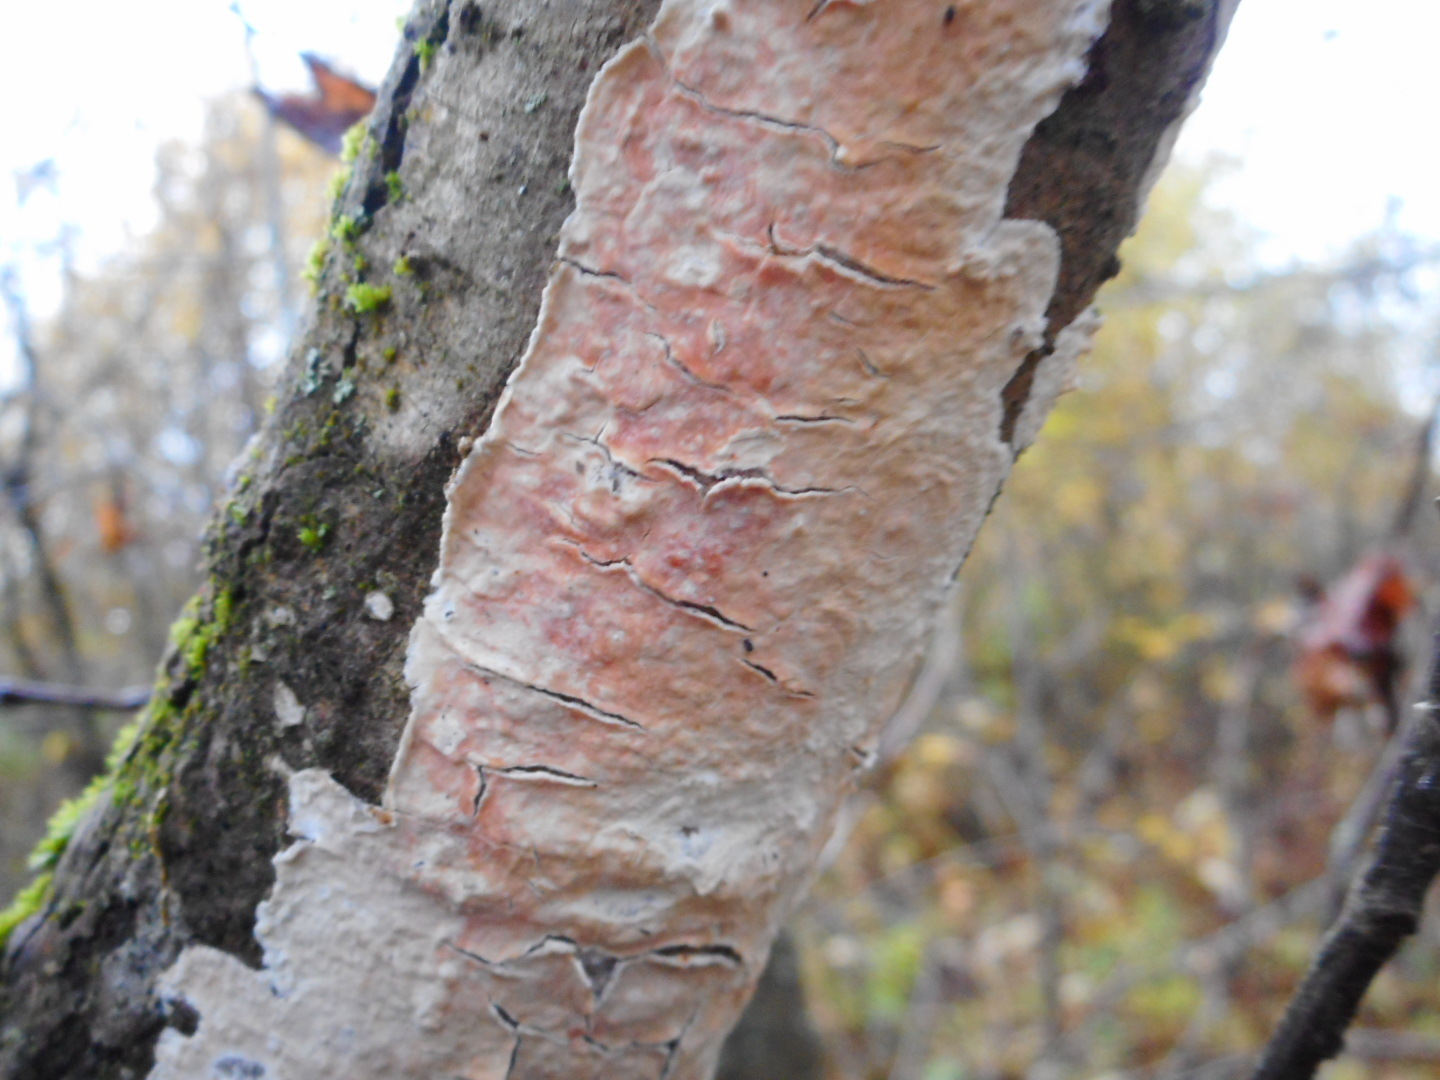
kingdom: Fungi
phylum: Basidiomycota
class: Agaricomycetes
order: Agaricales
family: Physalacriaceae
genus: Cylindrobasidium
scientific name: Cylindrobasidium evolvens
